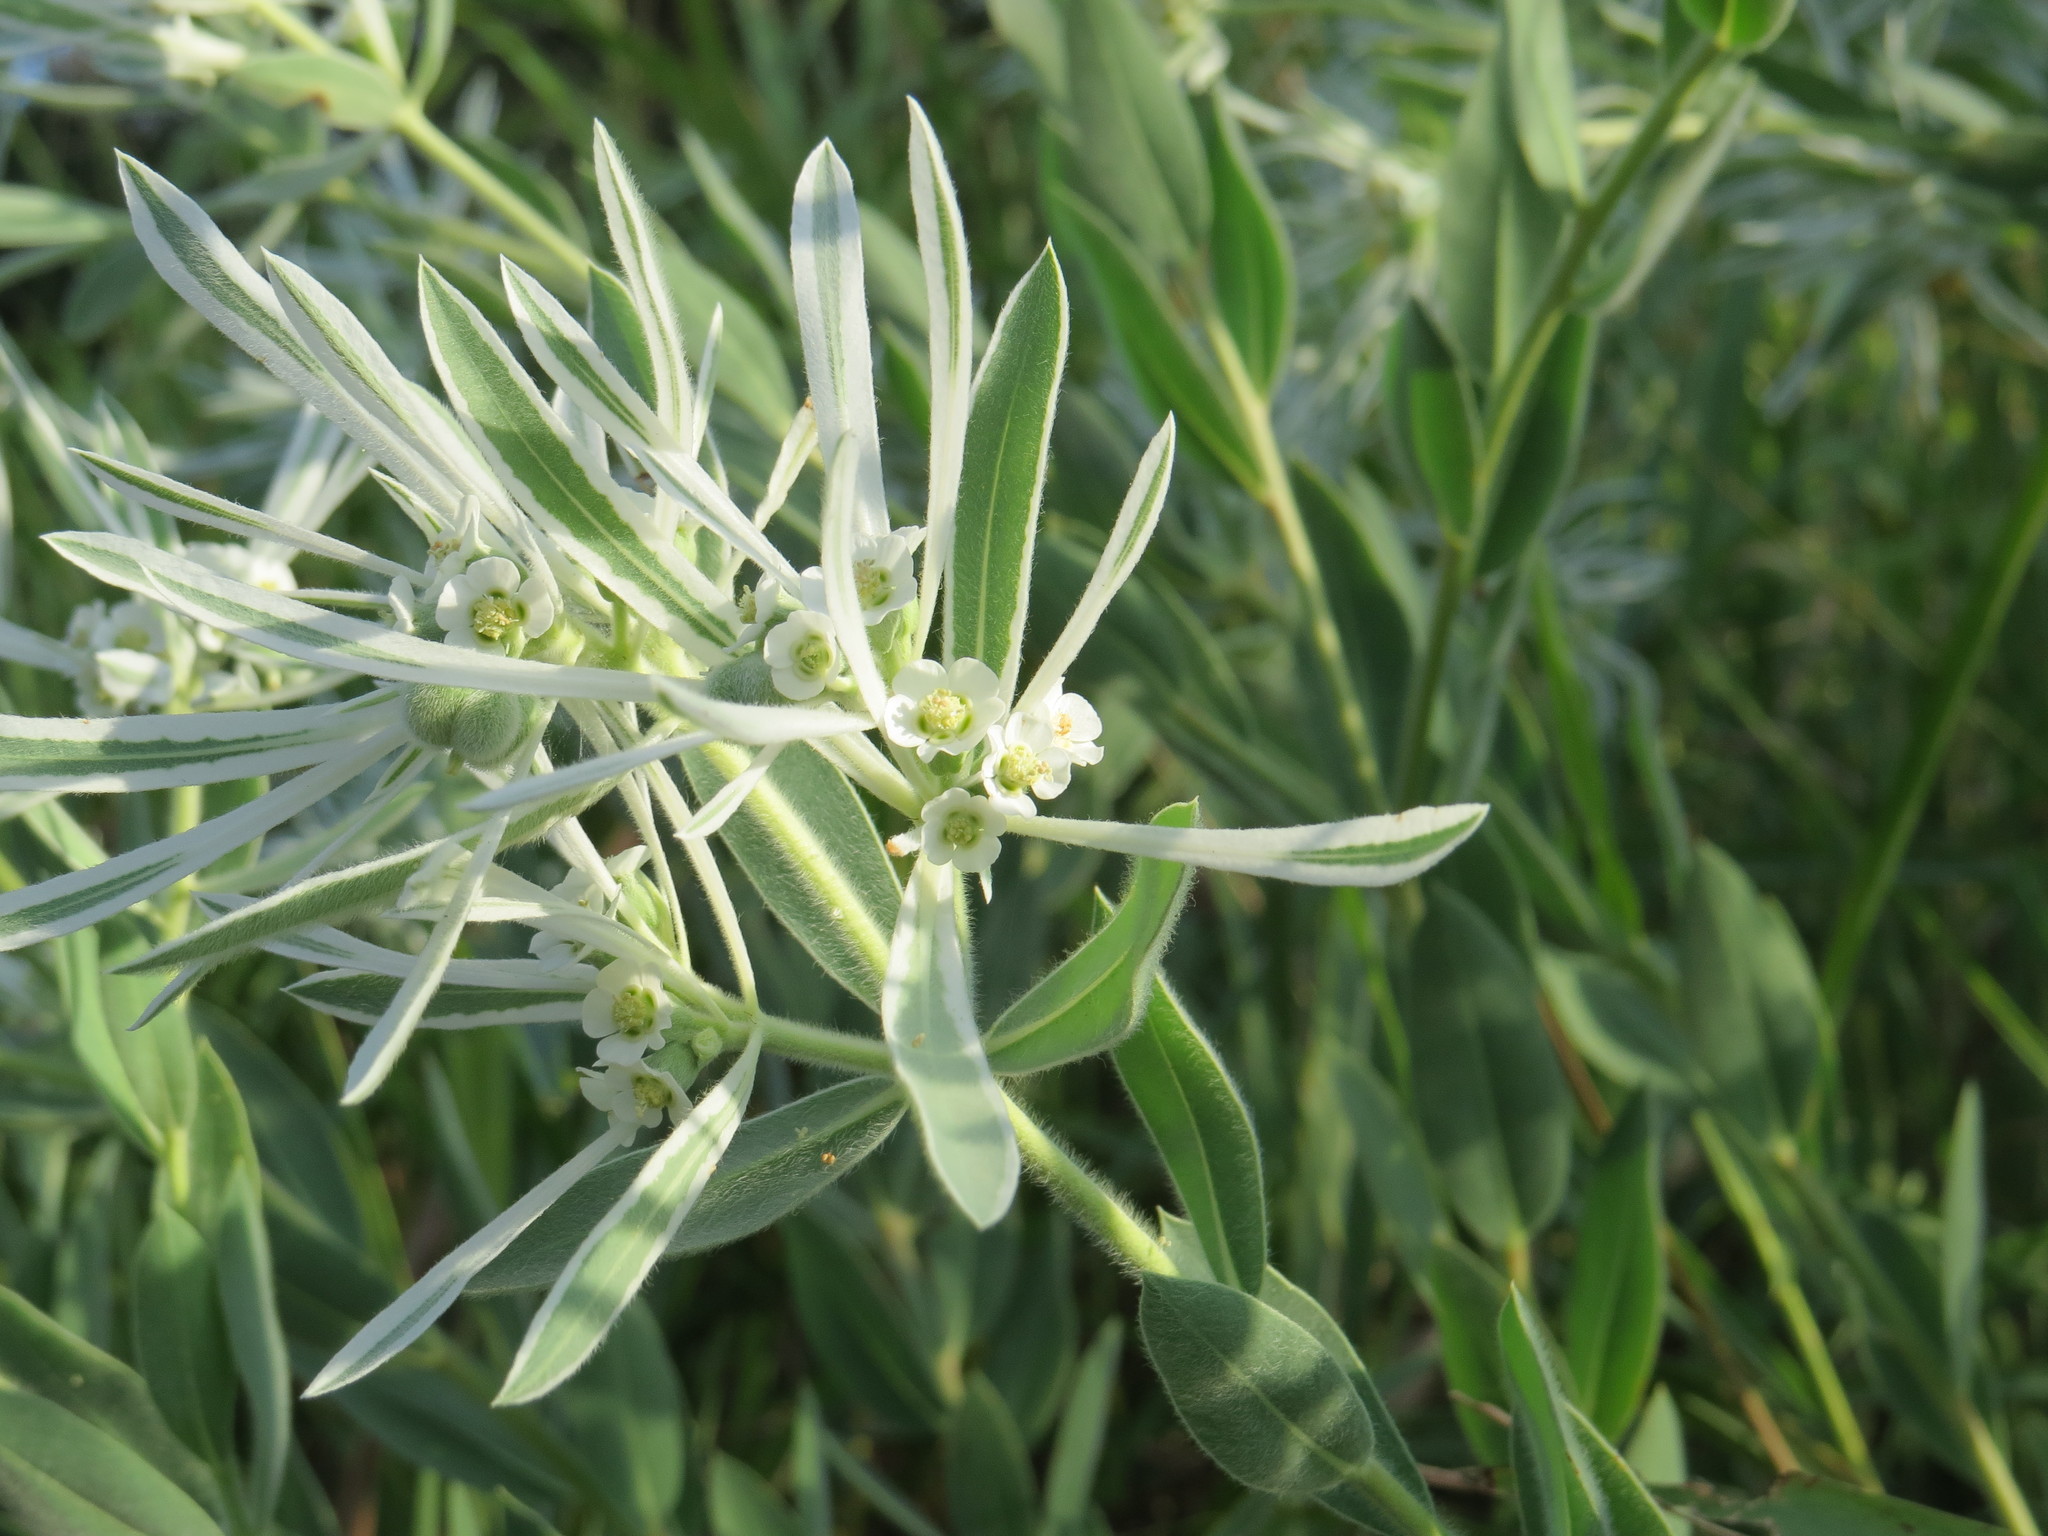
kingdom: Plantae
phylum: Tracheophyta
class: Magnoliopsida
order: Malpighiales
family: Euphorbiaceae
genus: Euphorbia
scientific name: Euphorbia bicolor
